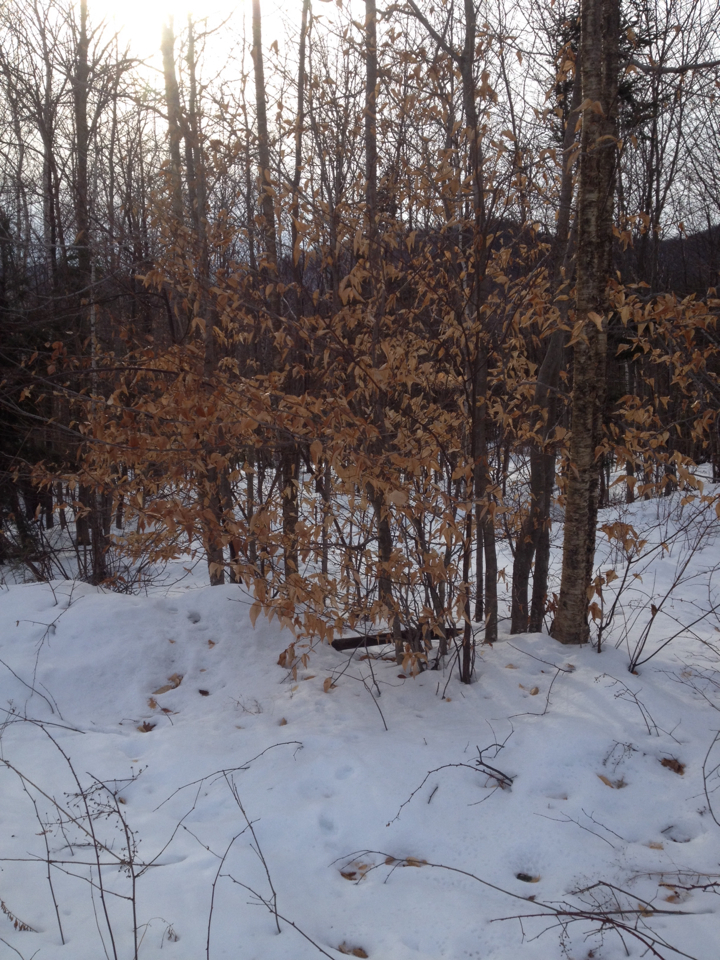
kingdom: Plantae
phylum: Tracheophyta
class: Magnoliopsida
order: Fagales
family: Fagaceae
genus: Fagus
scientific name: Fagus grandifolia
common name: American beech
